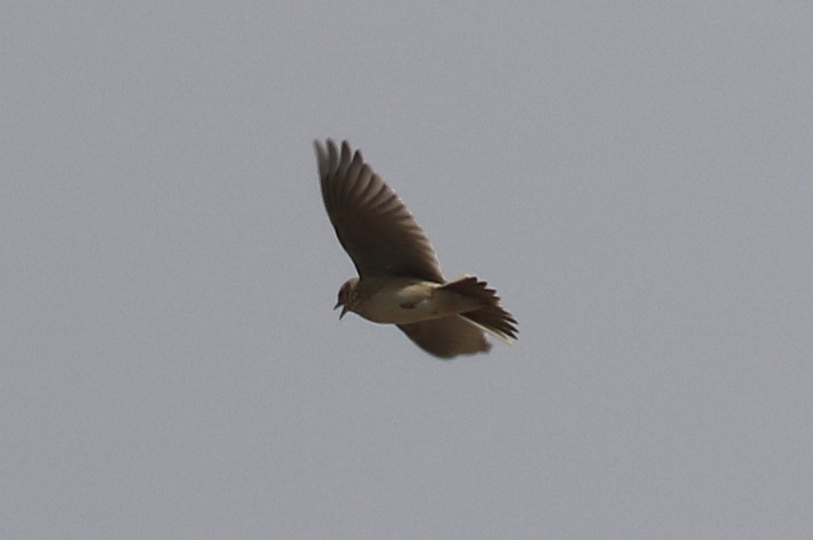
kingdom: Animalia
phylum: Chordata
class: Aves
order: Passeriformes
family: Alaudidae
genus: Alauda
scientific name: Alauda arvensis
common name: Eurasian skylark
